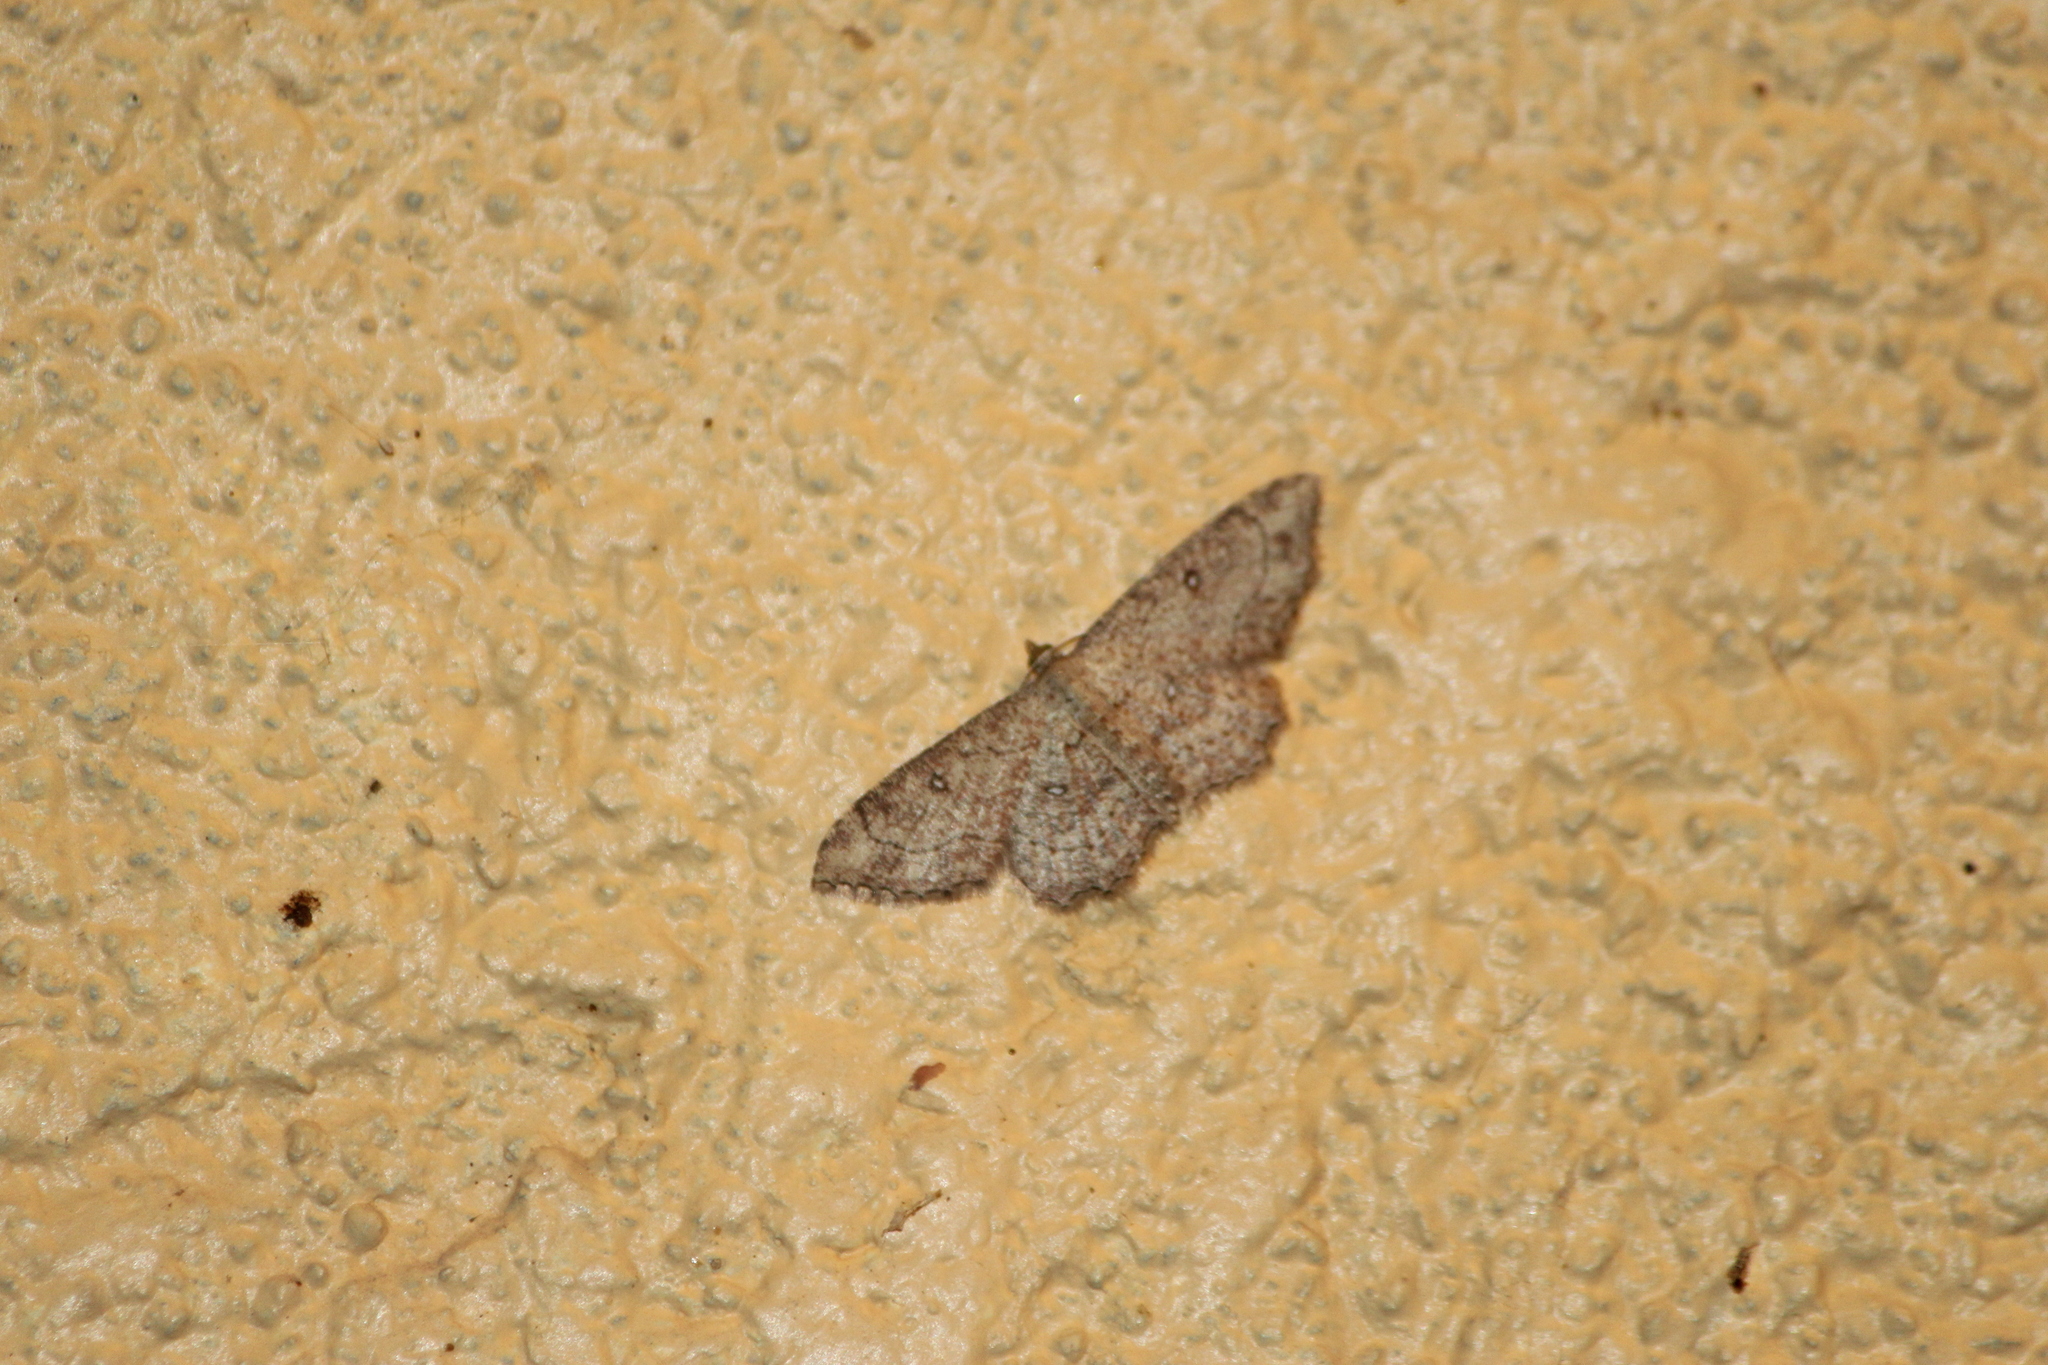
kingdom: Animalia
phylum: Arthropoda
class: Insecta
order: Lepidoptera
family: Geometridae
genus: Cyclophora
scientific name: Cyclophora nanaria
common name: Cankerworm
